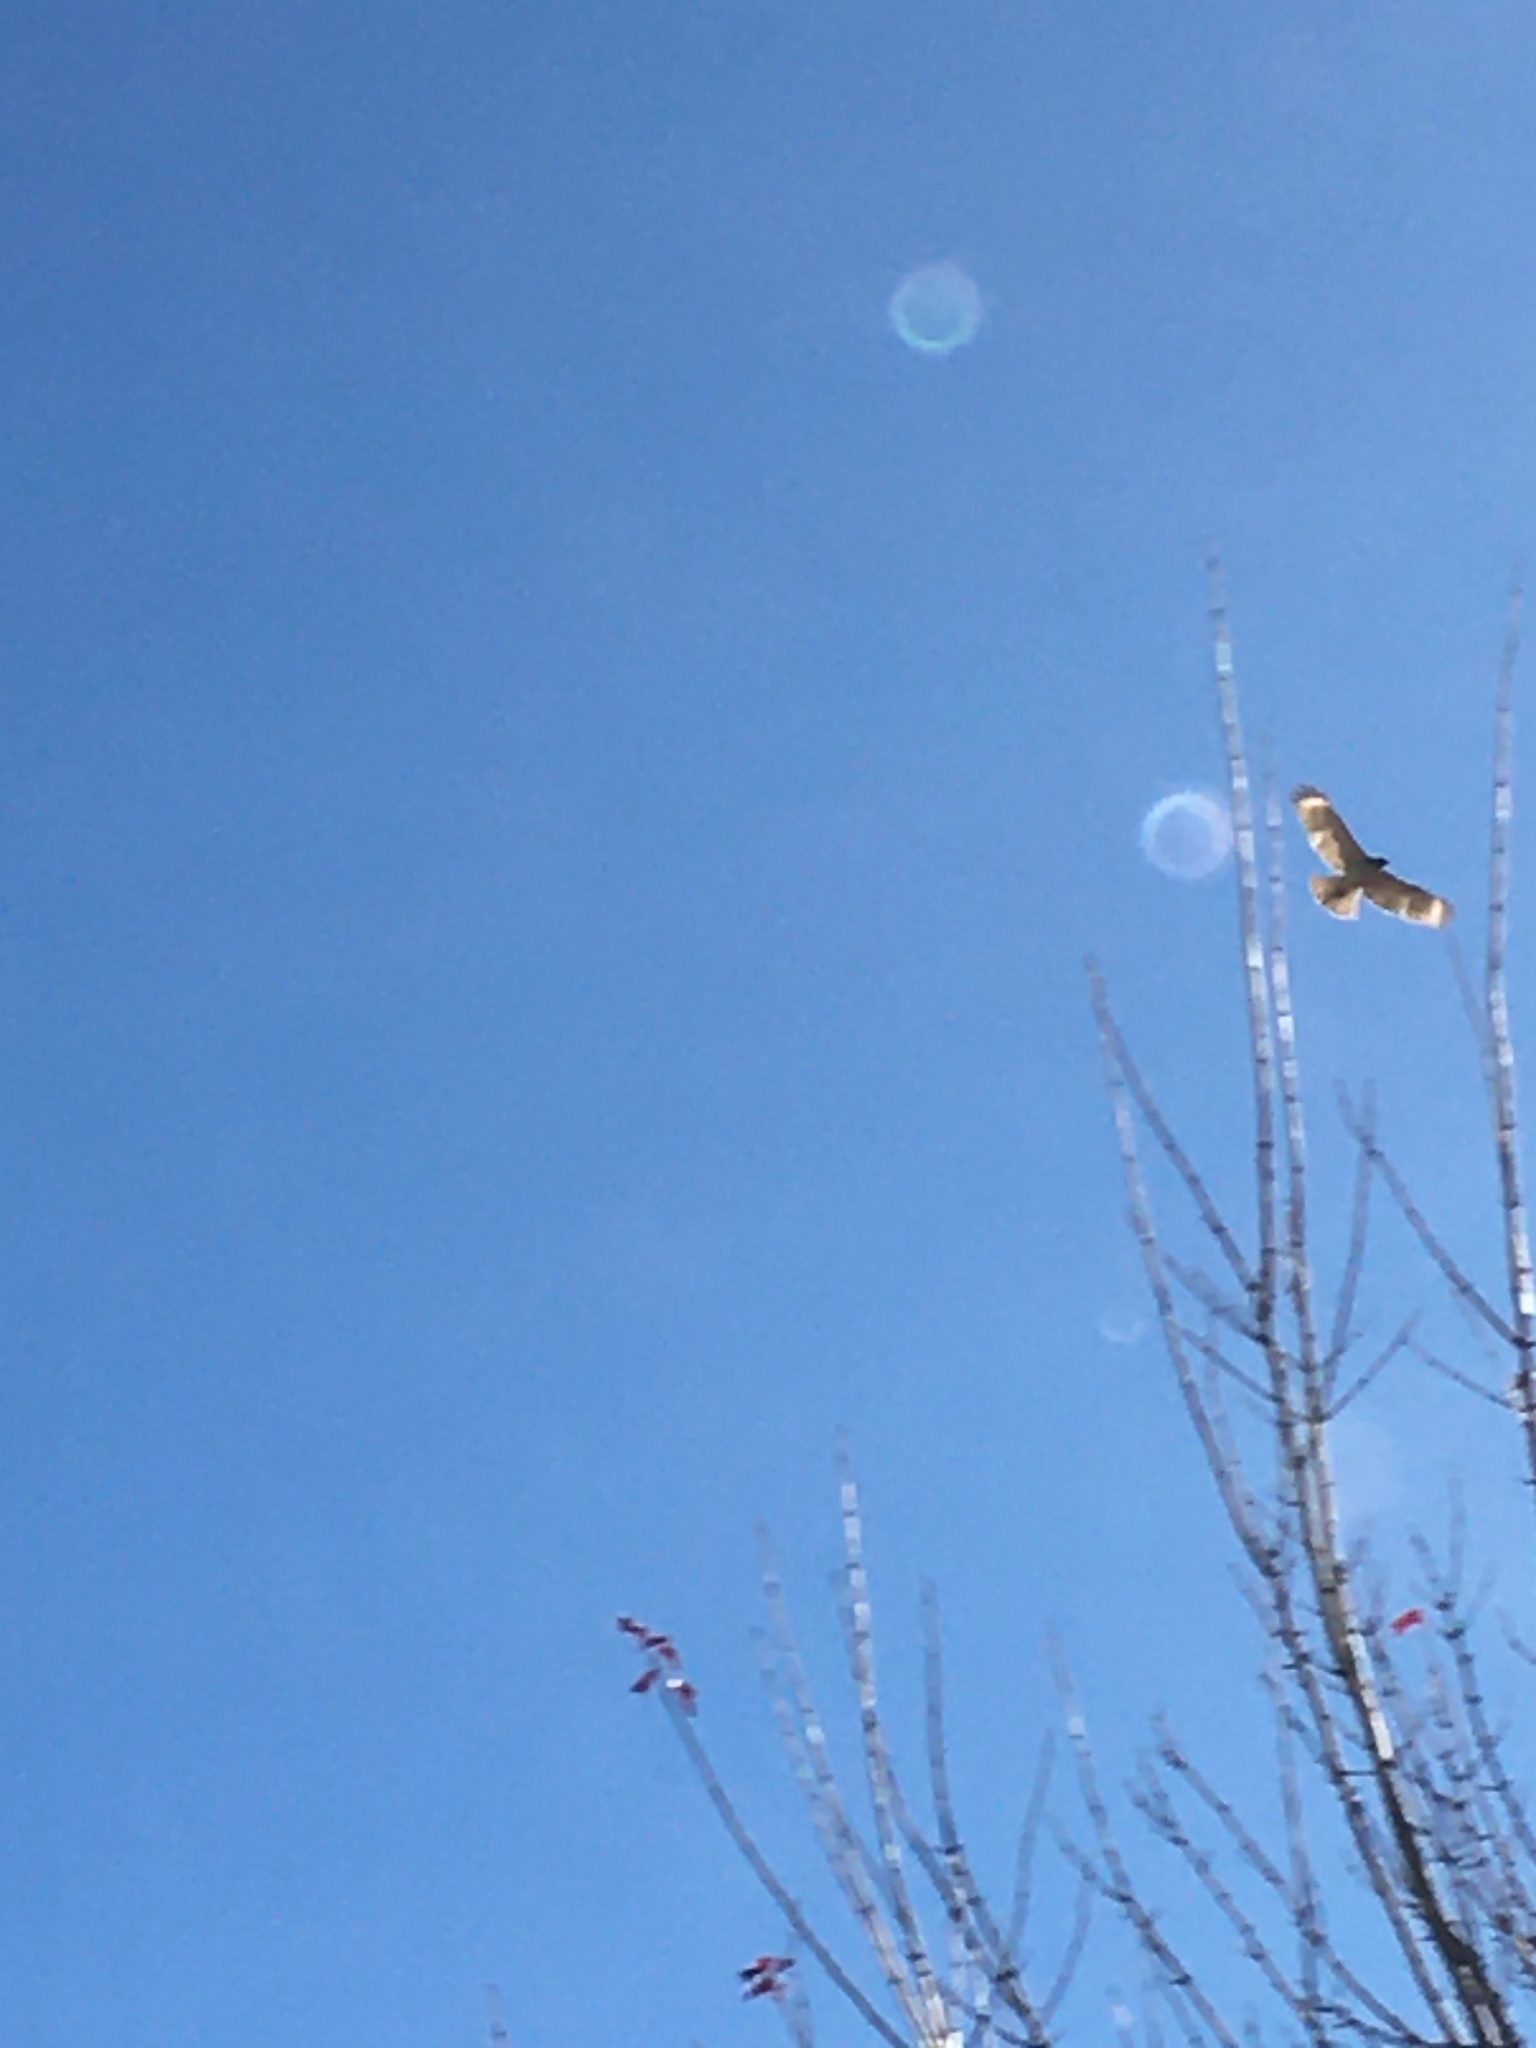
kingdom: Animalia
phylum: Chordata
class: Aves
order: Accipitriformes
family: Accipitridae
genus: Buteo
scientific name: Buteo lineatus
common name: Red-shouldered hawk
